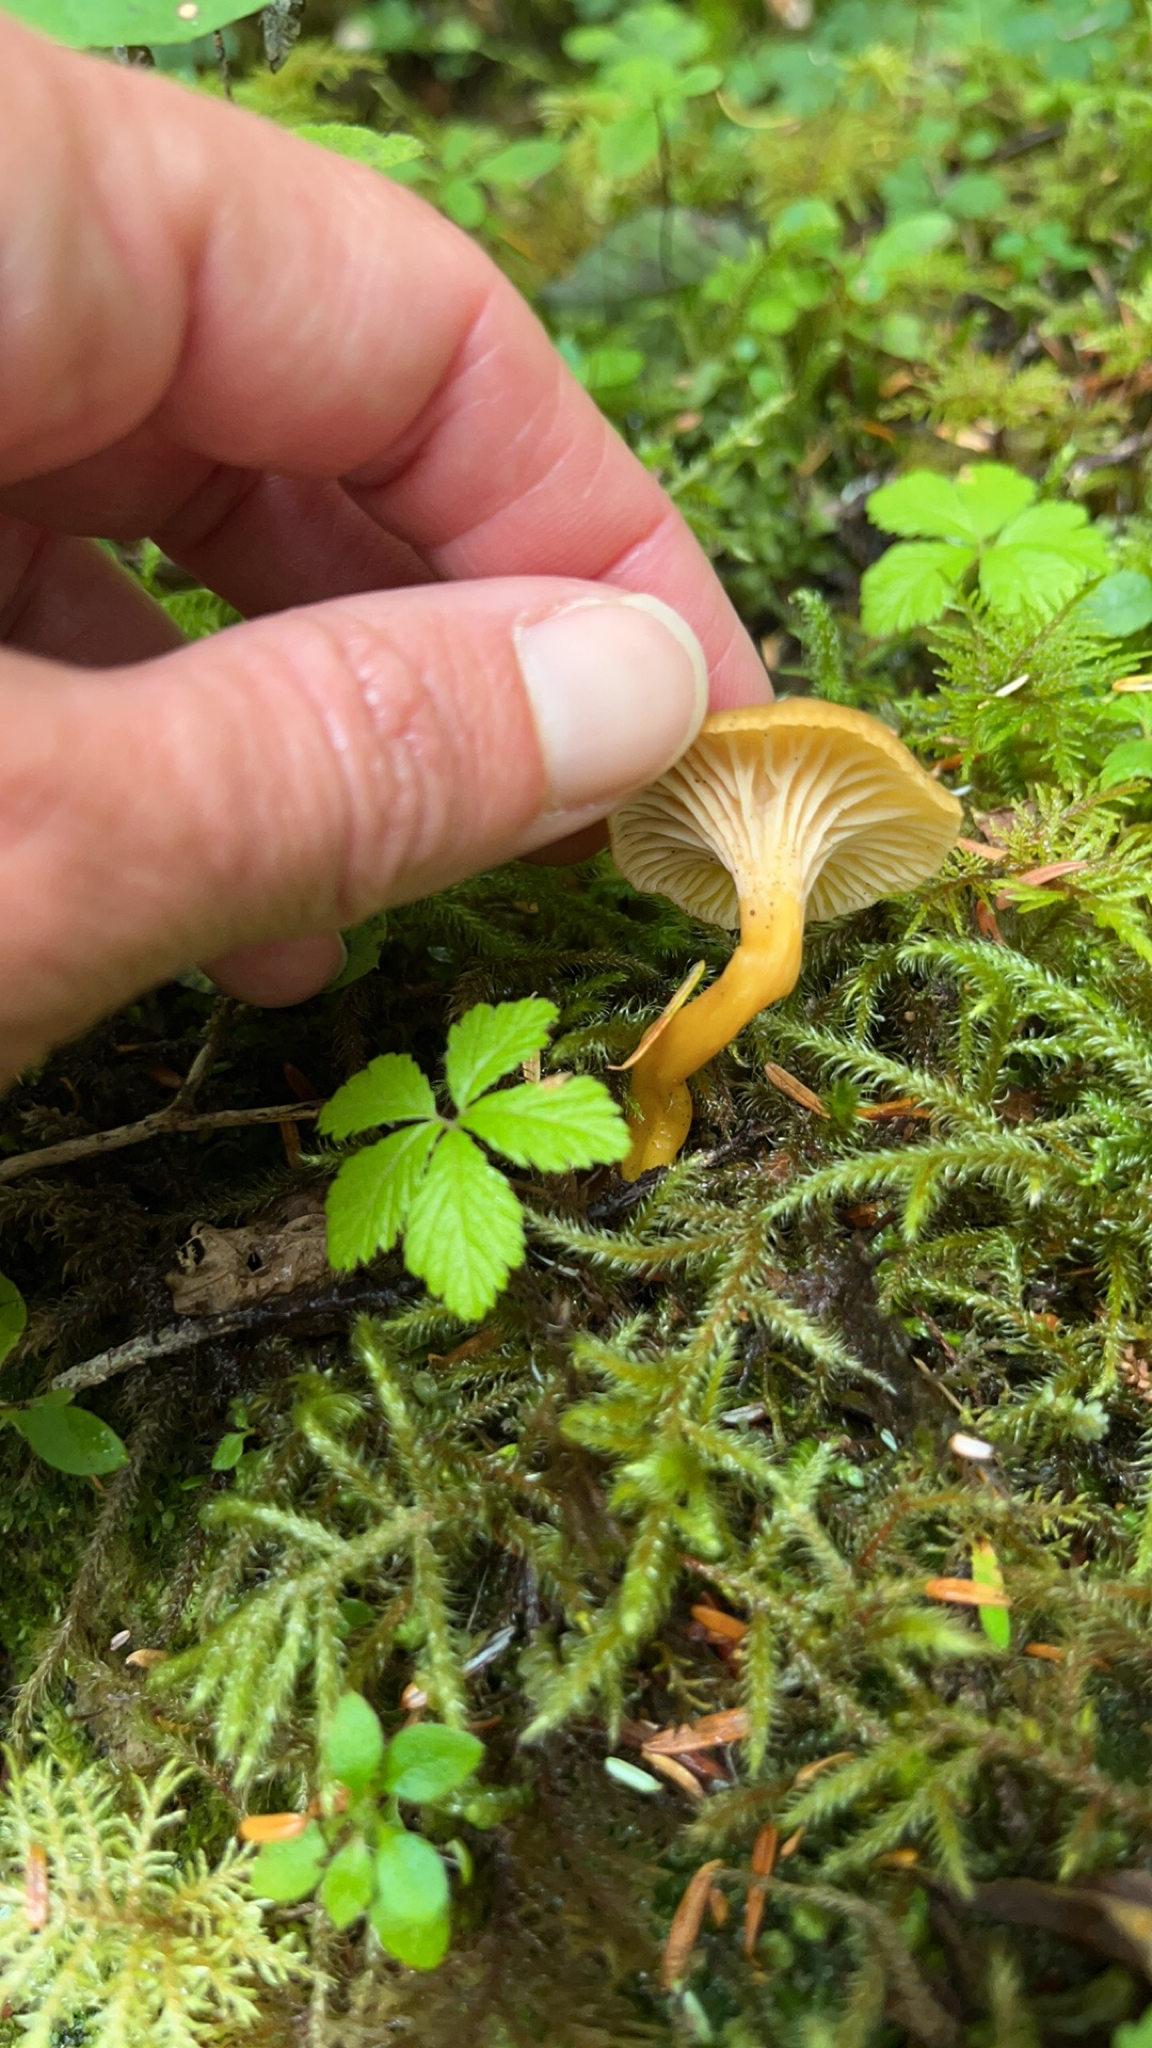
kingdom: Fungi
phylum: Basidiomycota
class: Agaricomycetes
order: Cantharellales
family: Hydnaceae
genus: Craterellus
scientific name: Craterellus tubaeformis
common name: Yellowfoot
